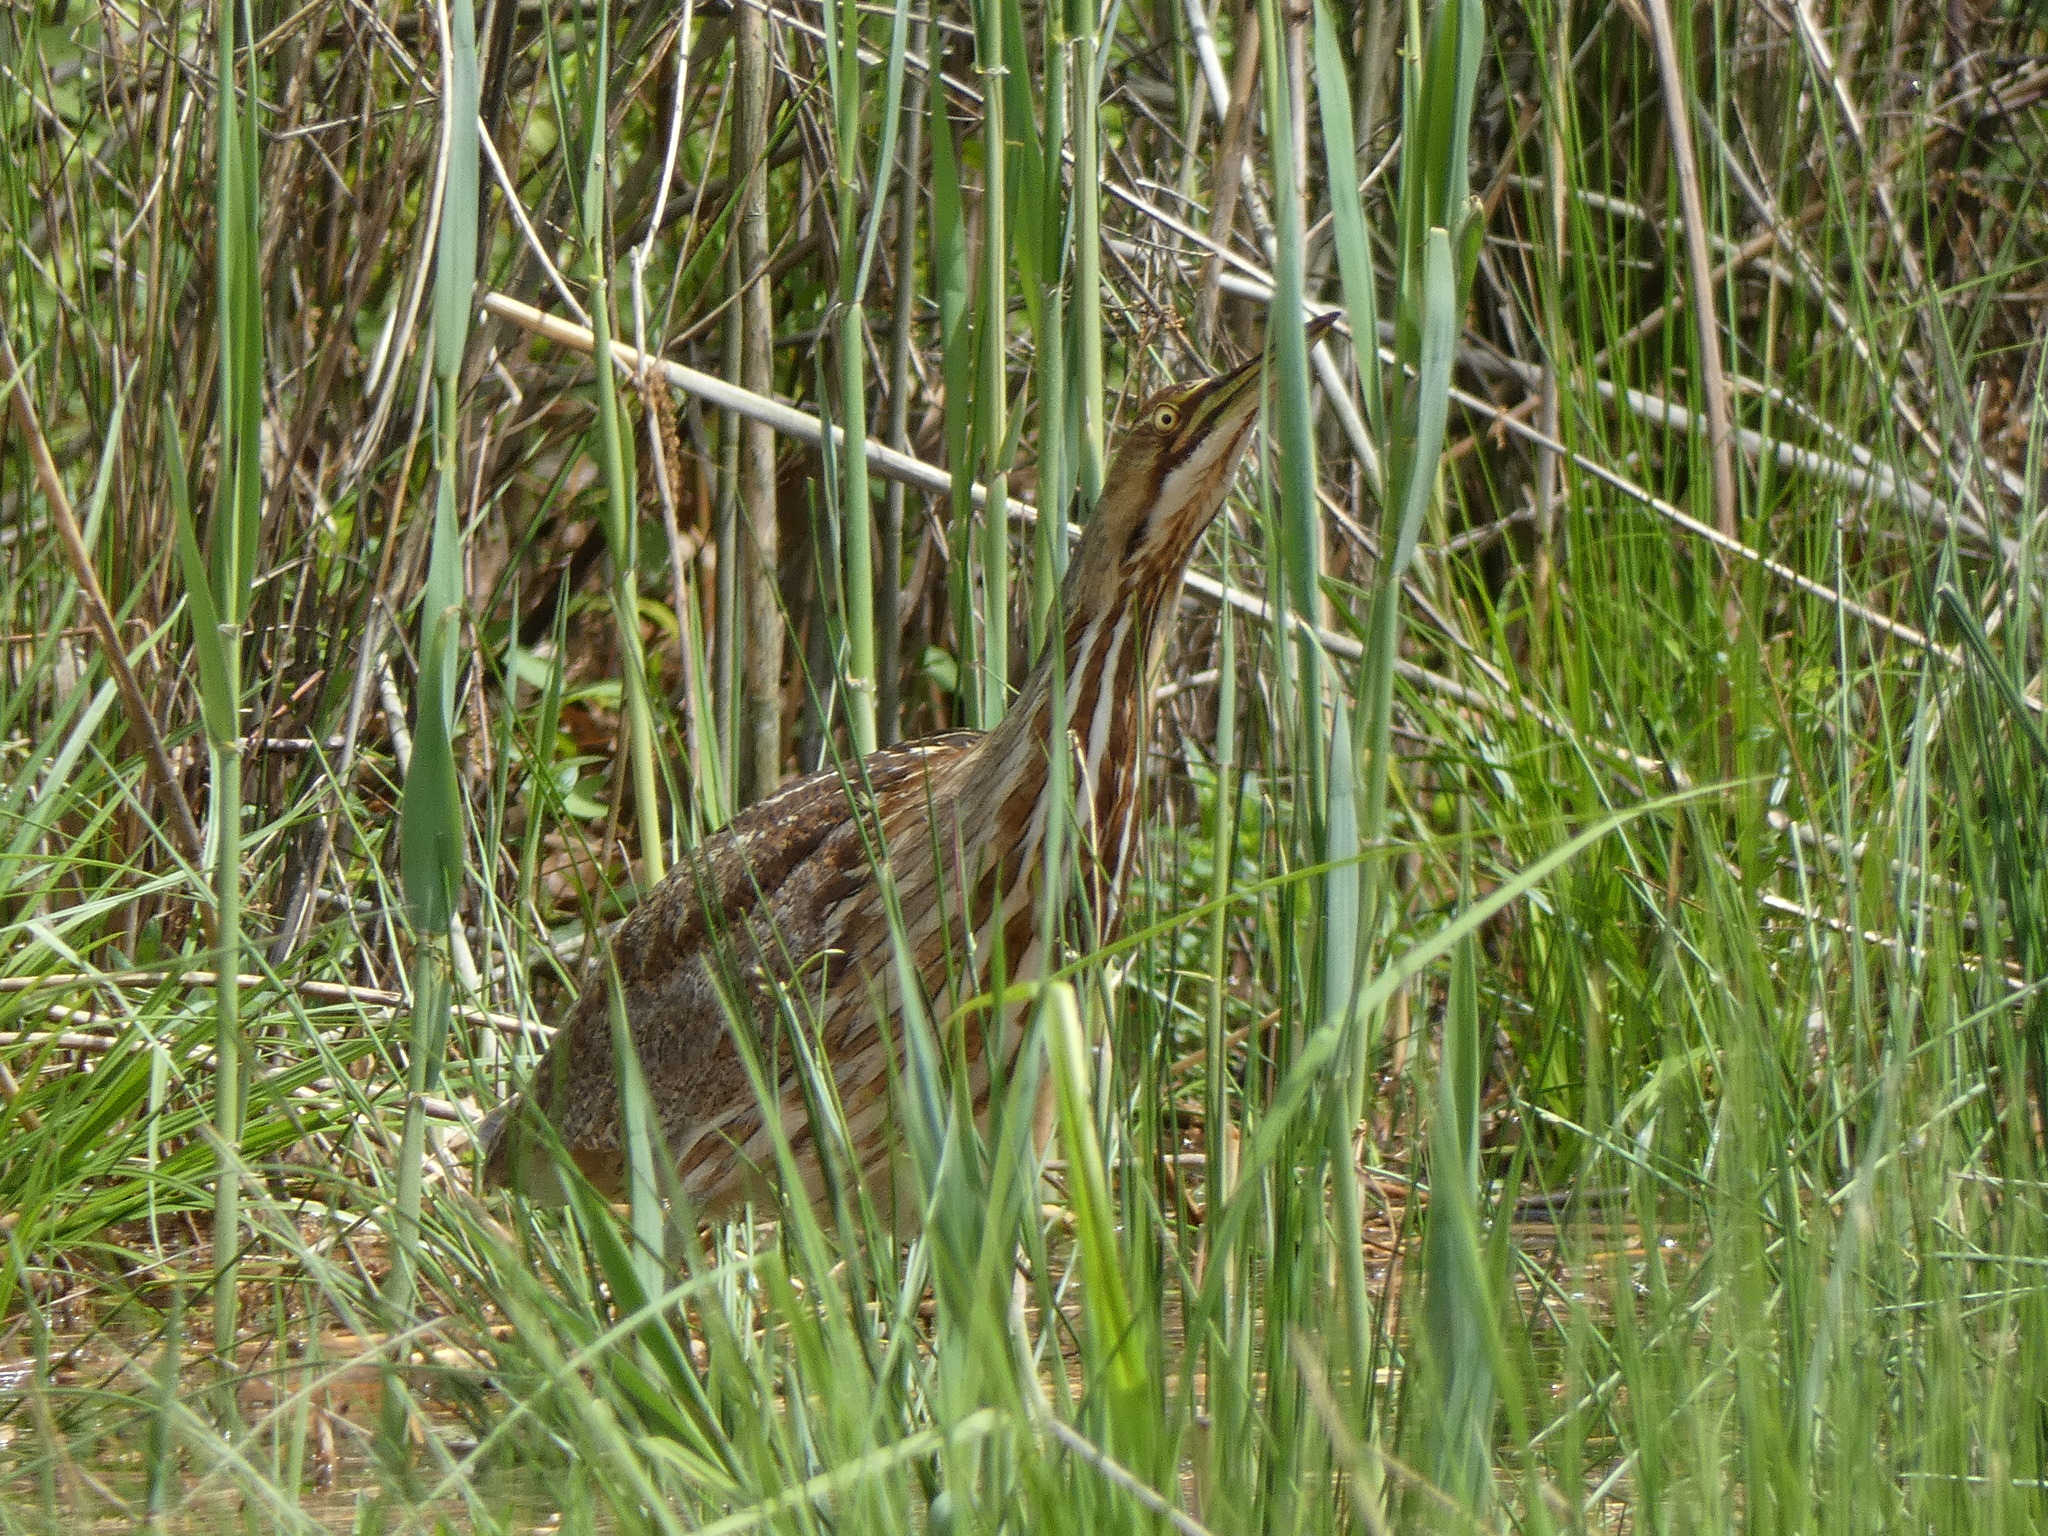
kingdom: Animalia
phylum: Chordata
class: Aves
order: Pelecaniformes
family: Ardeidae
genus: Botaurus
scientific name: Botaurus lentiginosus
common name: American bittern
